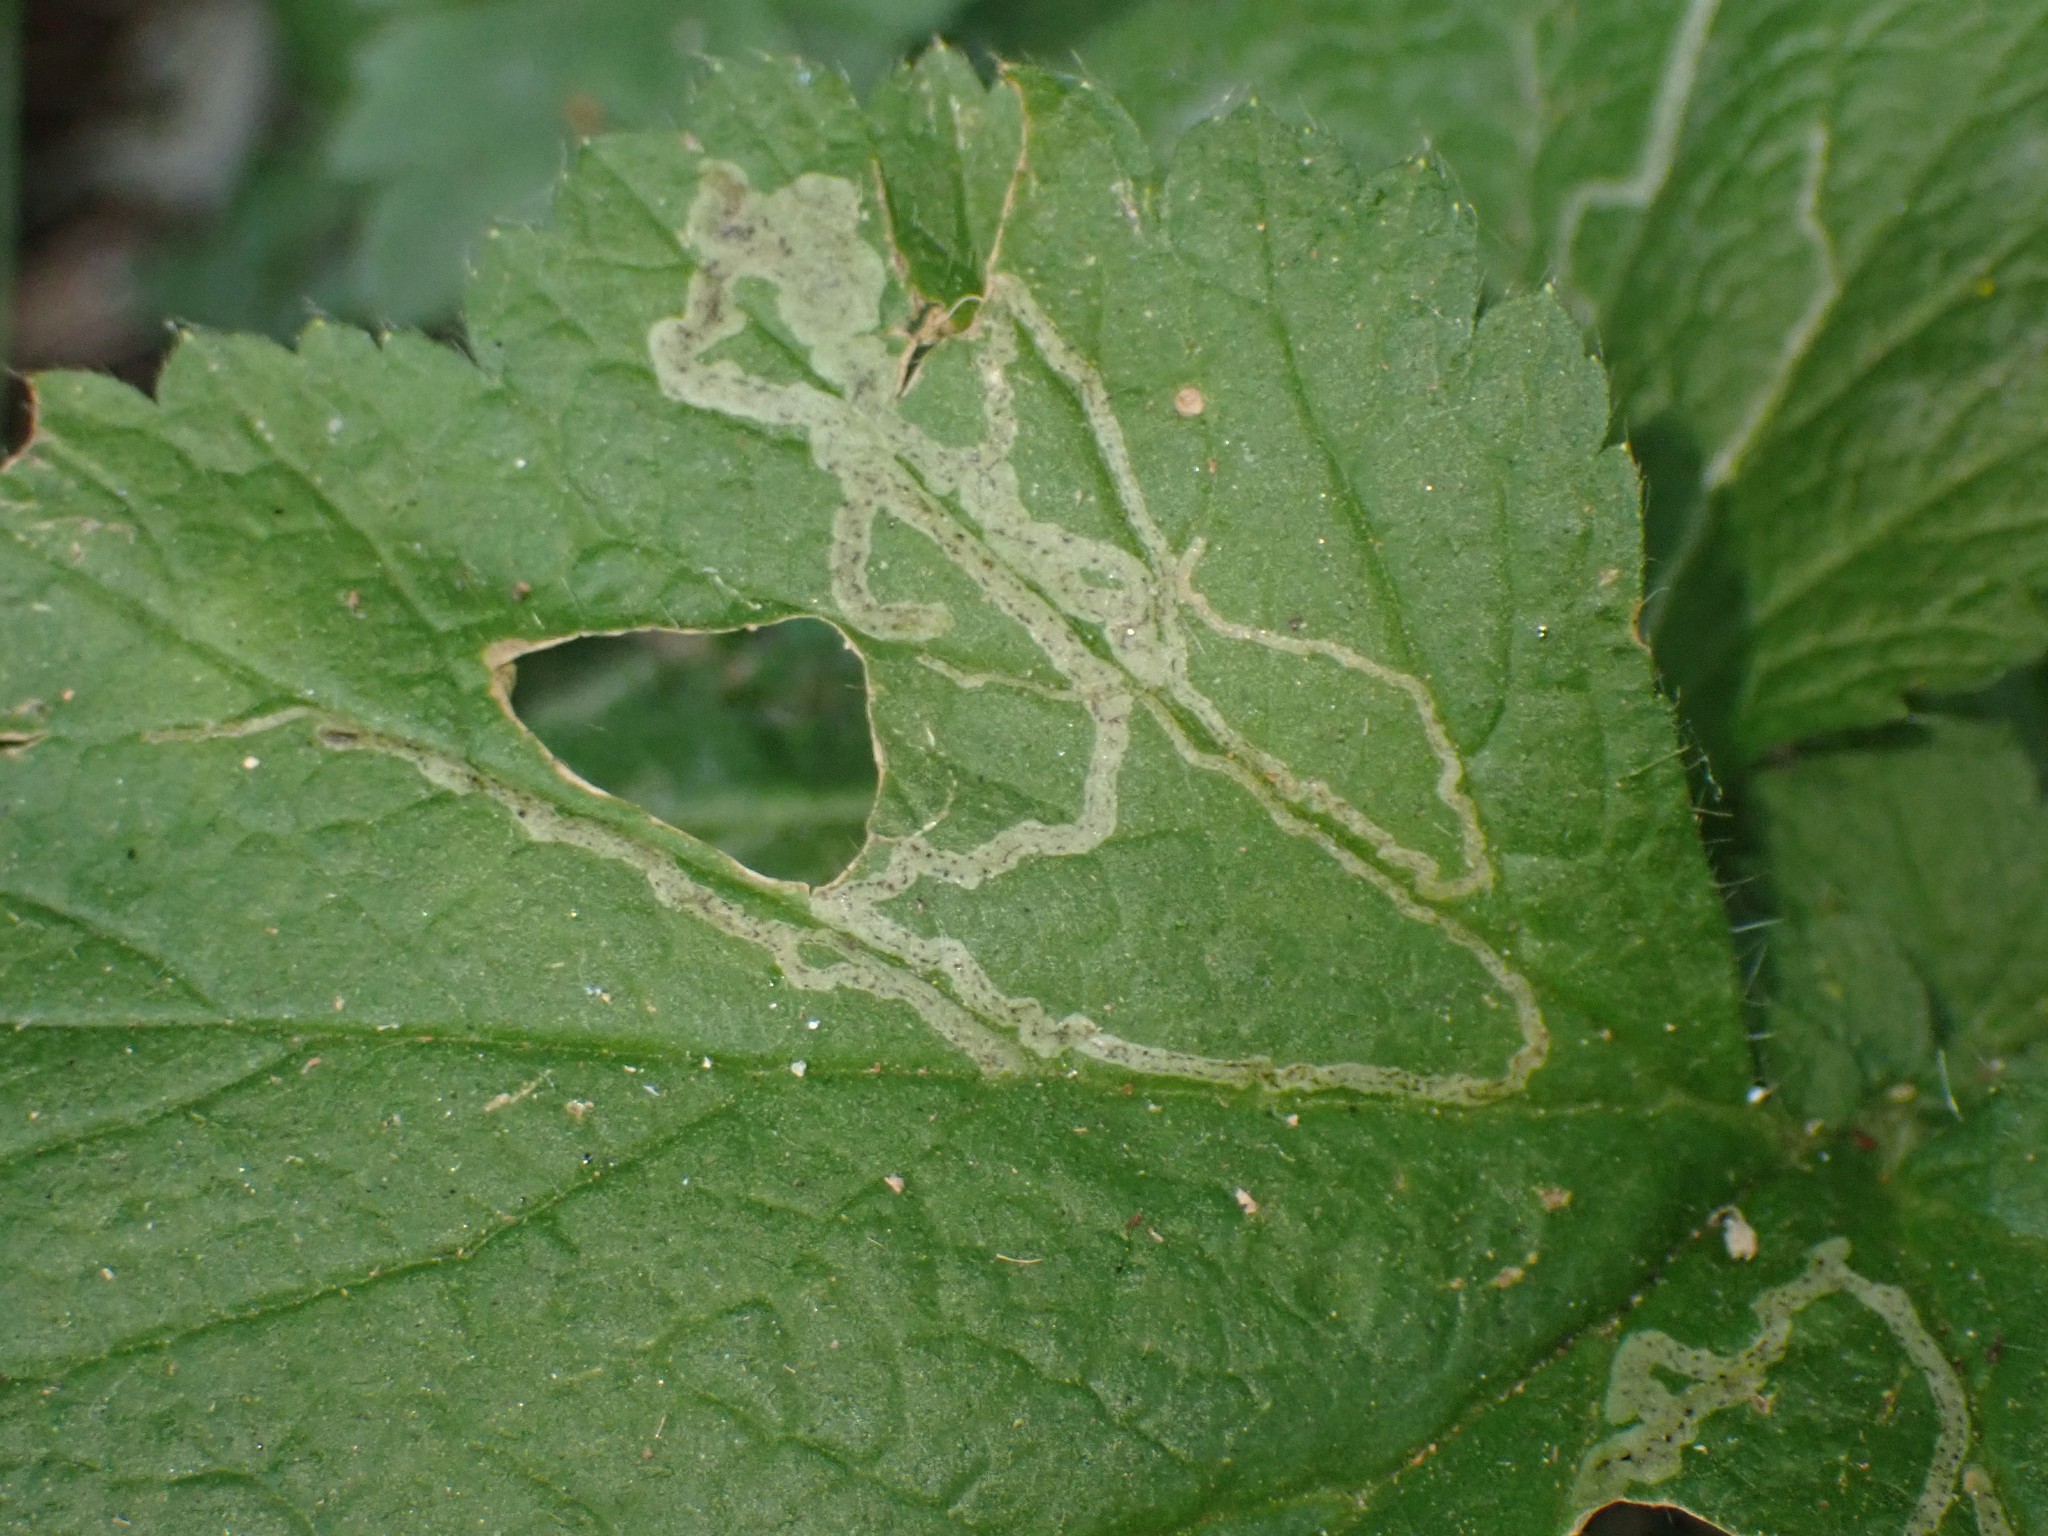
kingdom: Animalia
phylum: Arthropoda
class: Insecta
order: Diptera
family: Agromyzidae
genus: Agromyza
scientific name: Agromyza idaeiana
